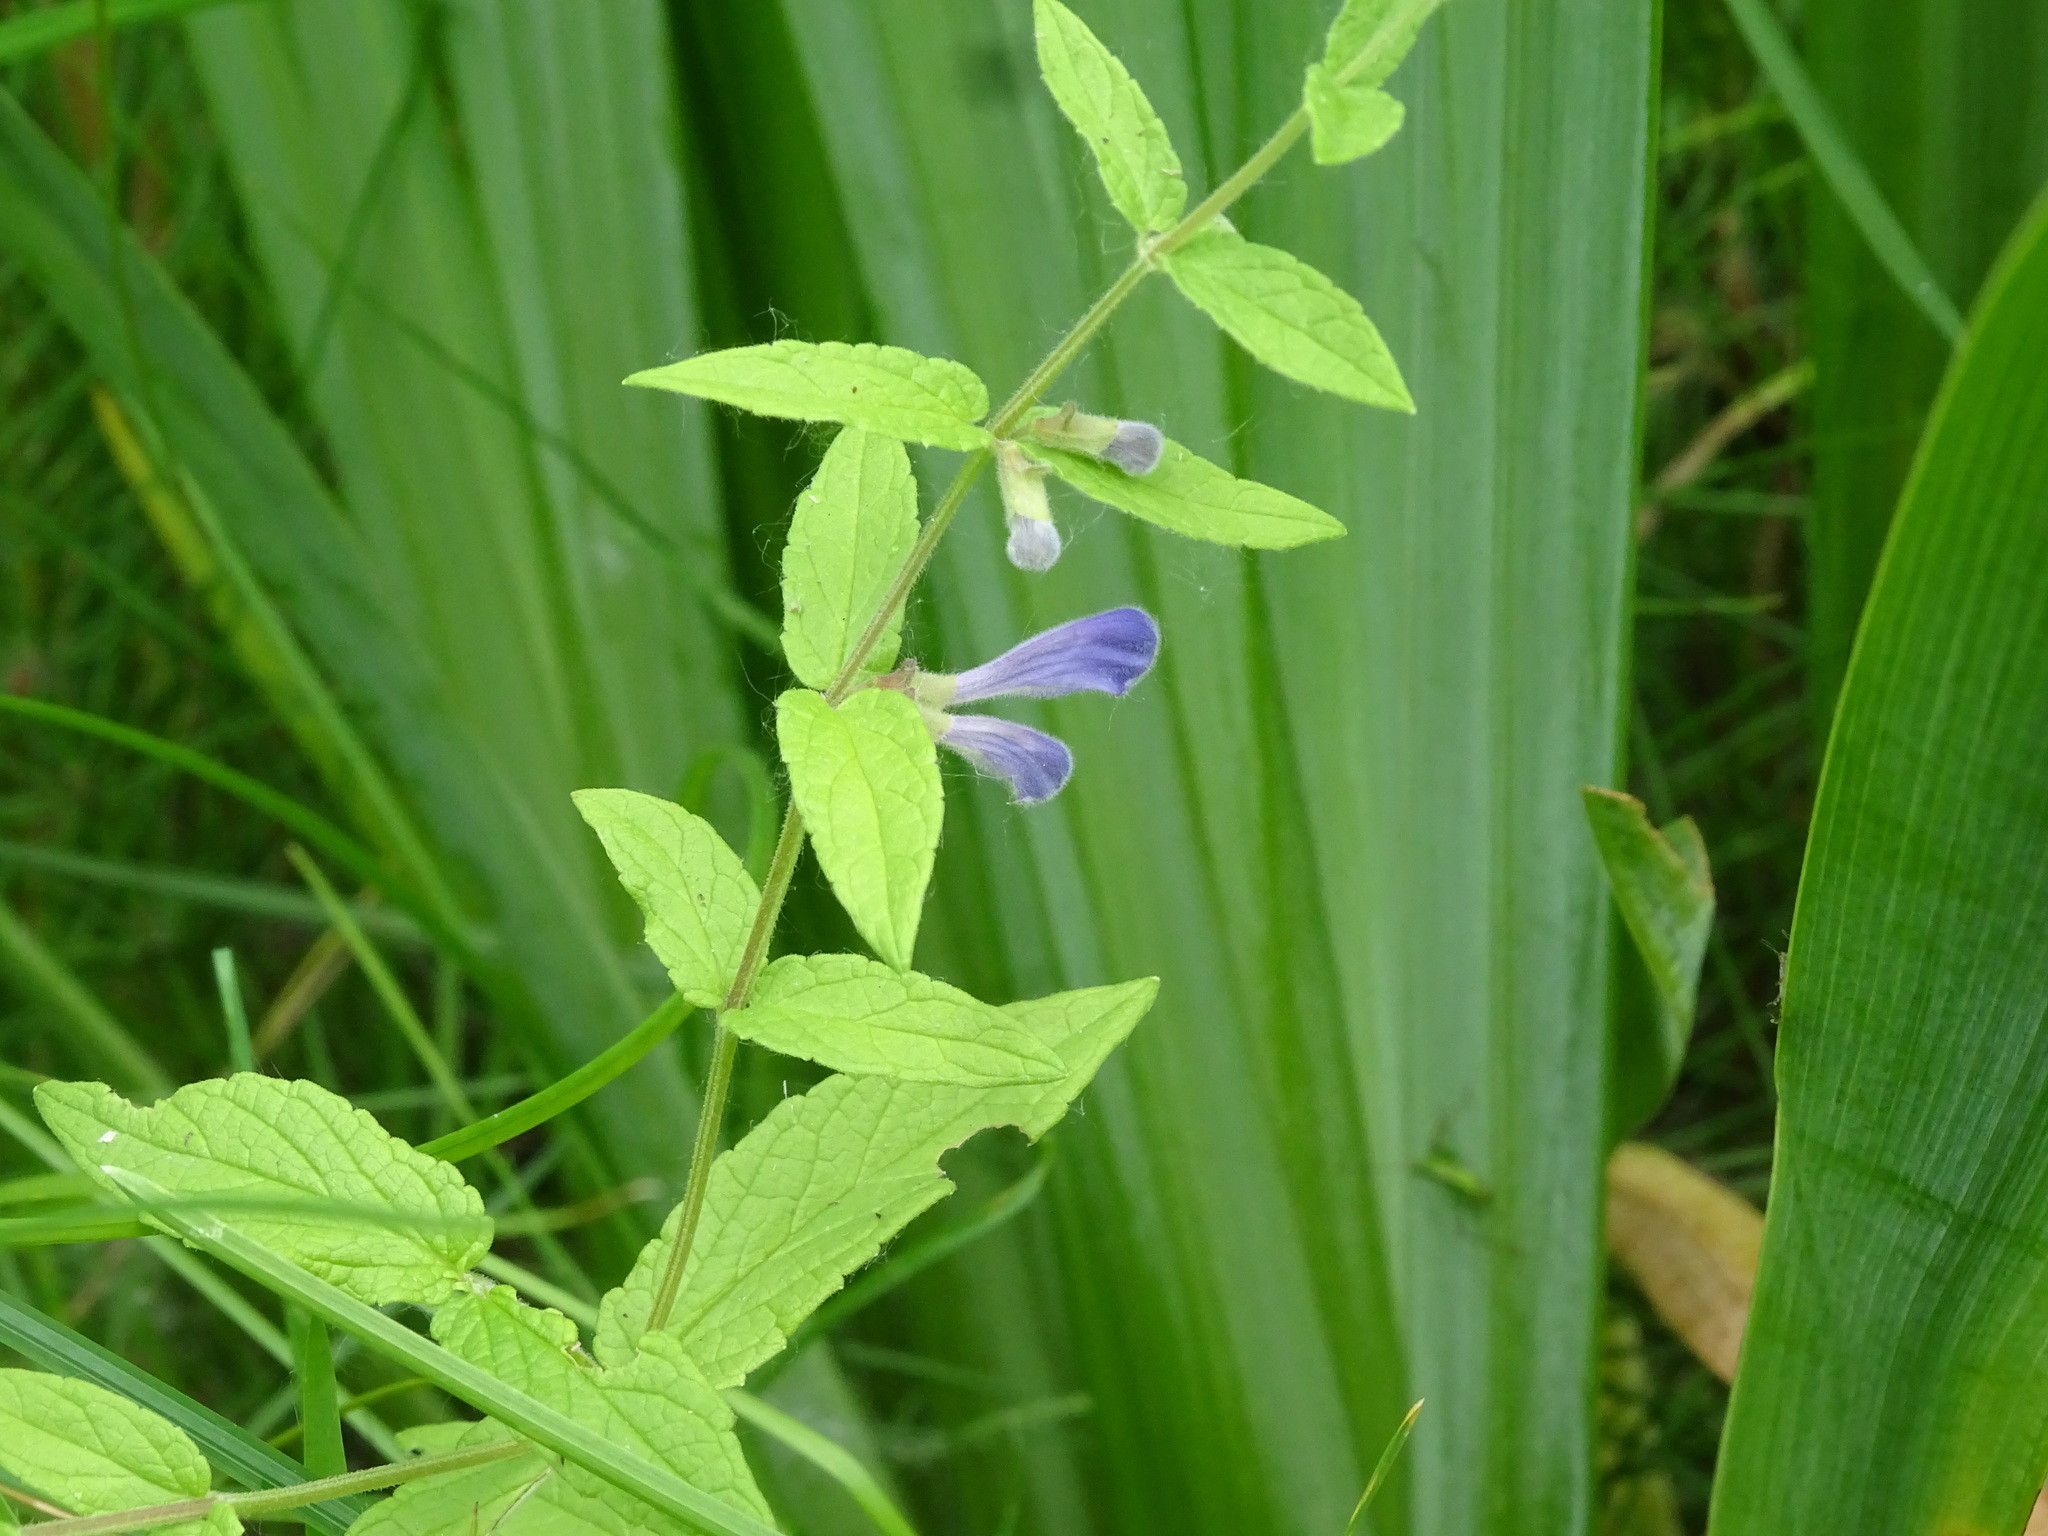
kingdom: Plantae
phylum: Tracheophyta
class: Magnoliopsida
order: Lamiales
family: Lamiaceae
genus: Scutellaria
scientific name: Scutellaria galericulata
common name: Skullcap
